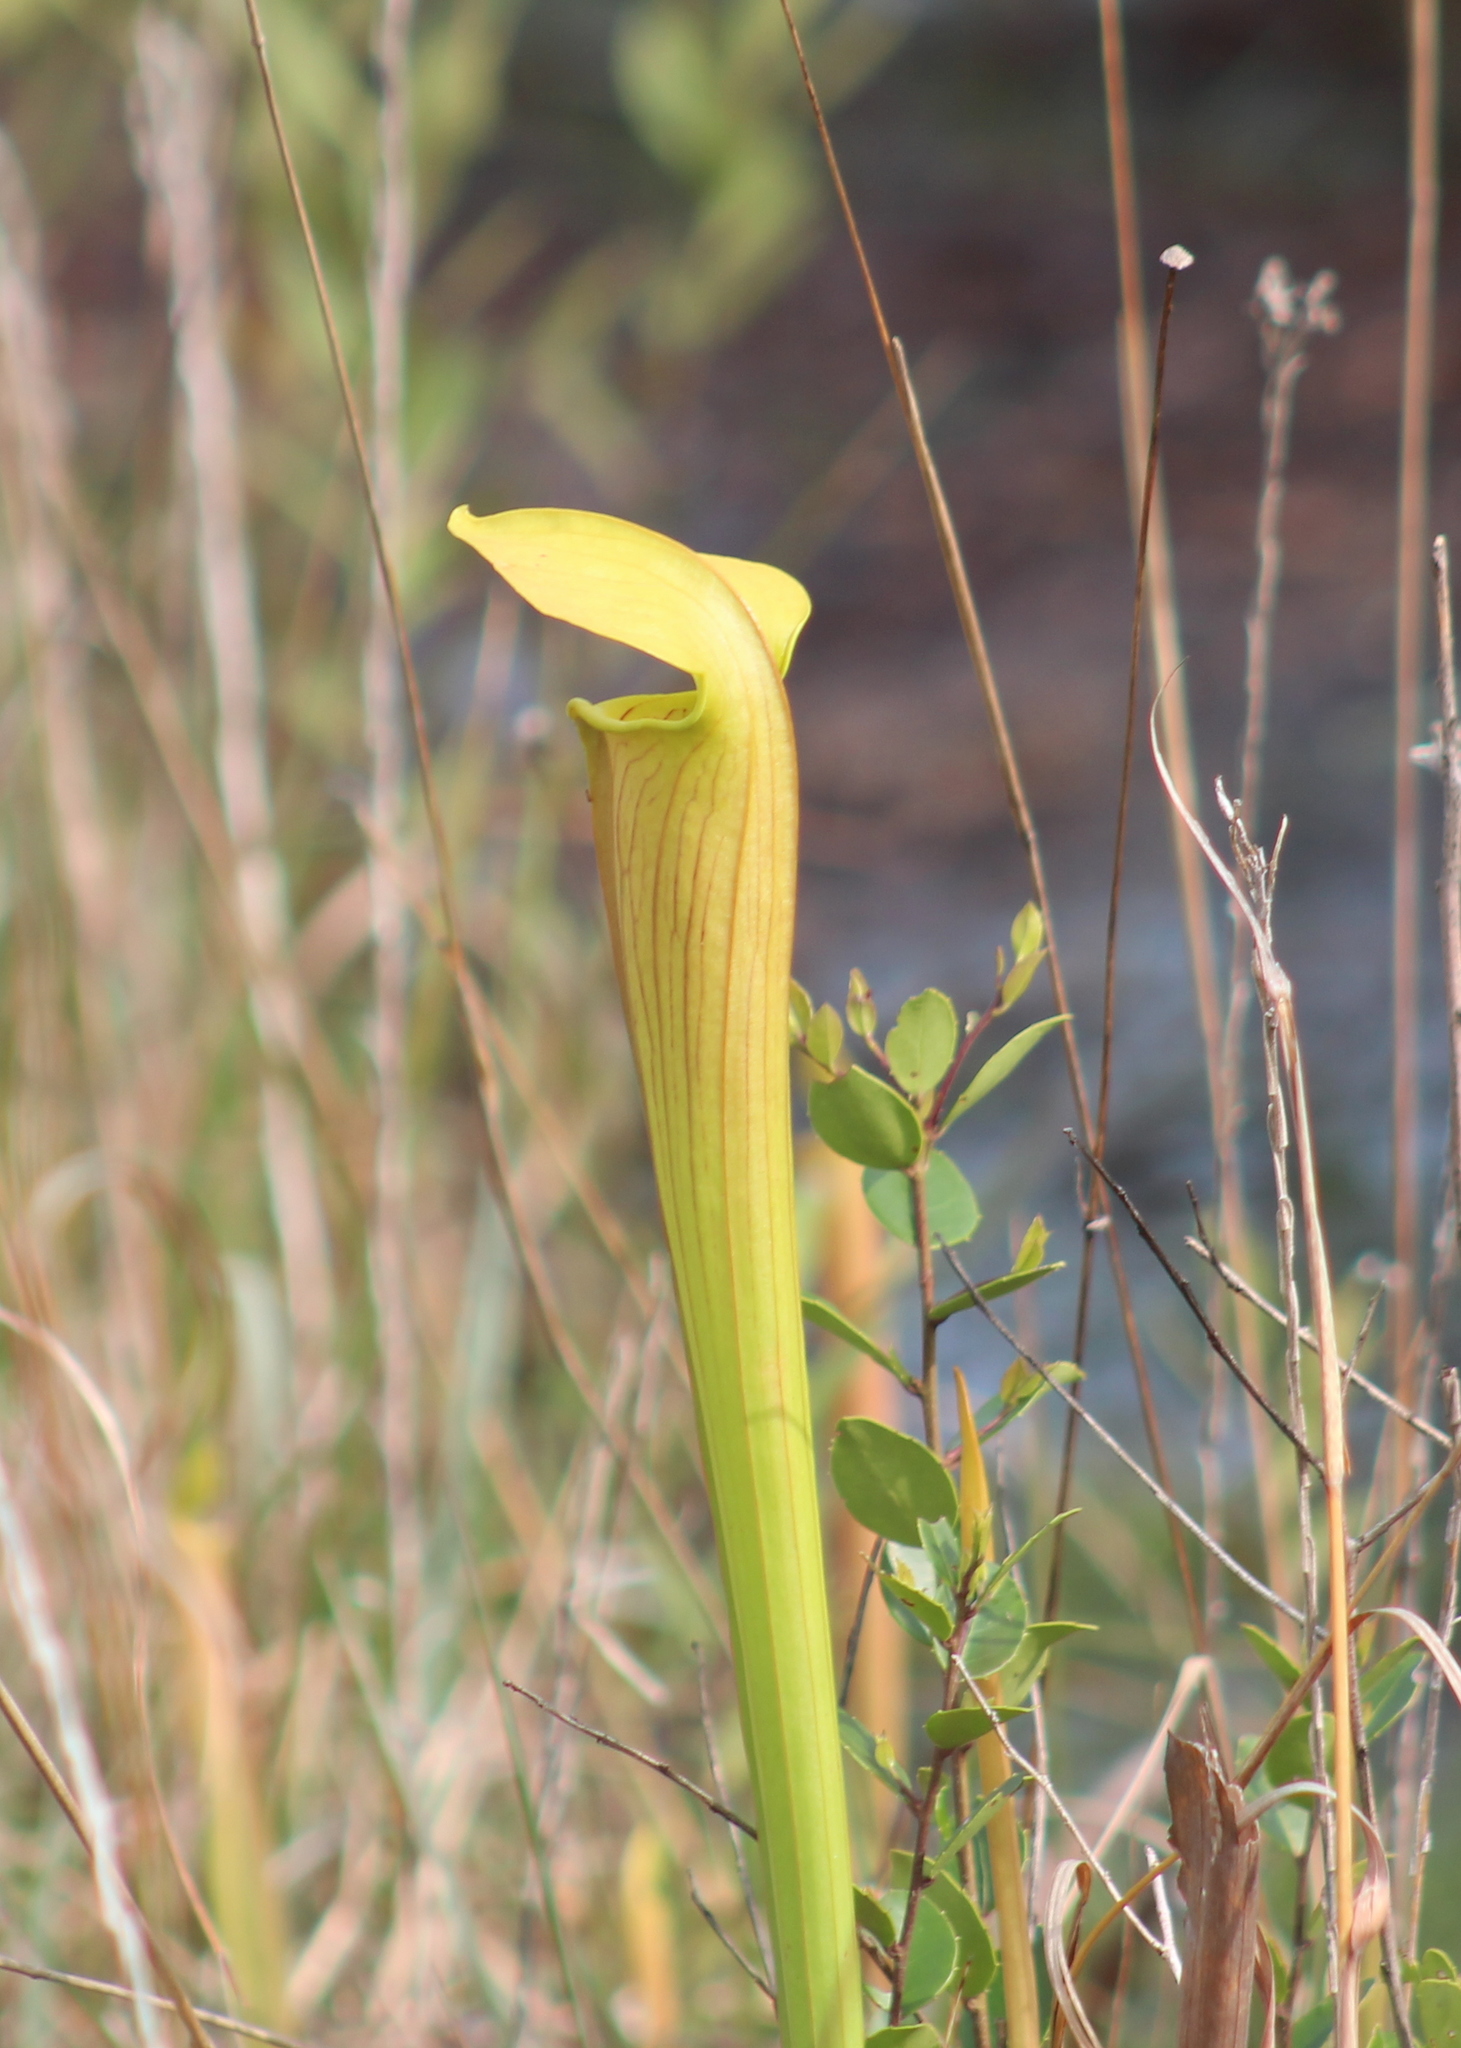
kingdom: Plantae
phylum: Tracheophyta
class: Magnoliopsida
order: Ericales
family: Sarraceniaceae
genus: Sarracenia
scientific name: Sarracenia alata
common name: Yellow trumpets
